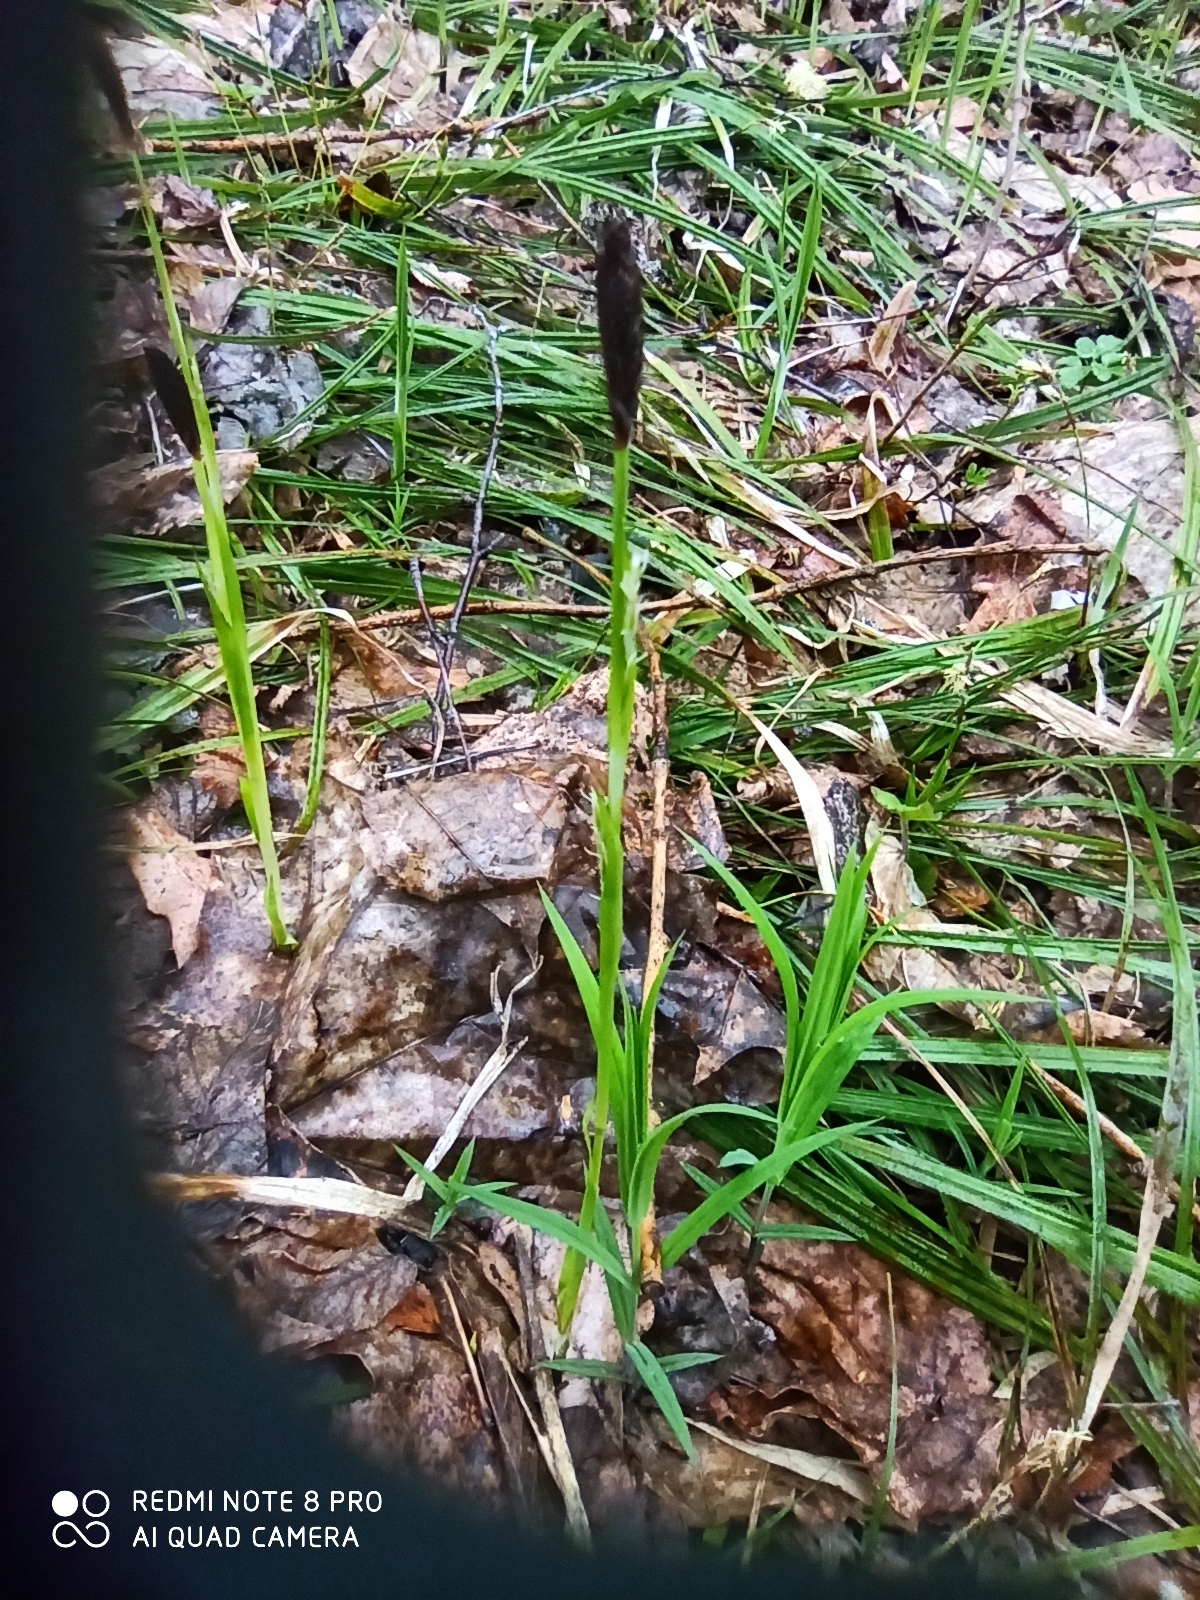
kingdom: Plantae
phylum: Tracheophyta
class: Liliopsida
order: Poales
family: Cyperaceae
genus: Carex
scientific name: Carex pilosa
